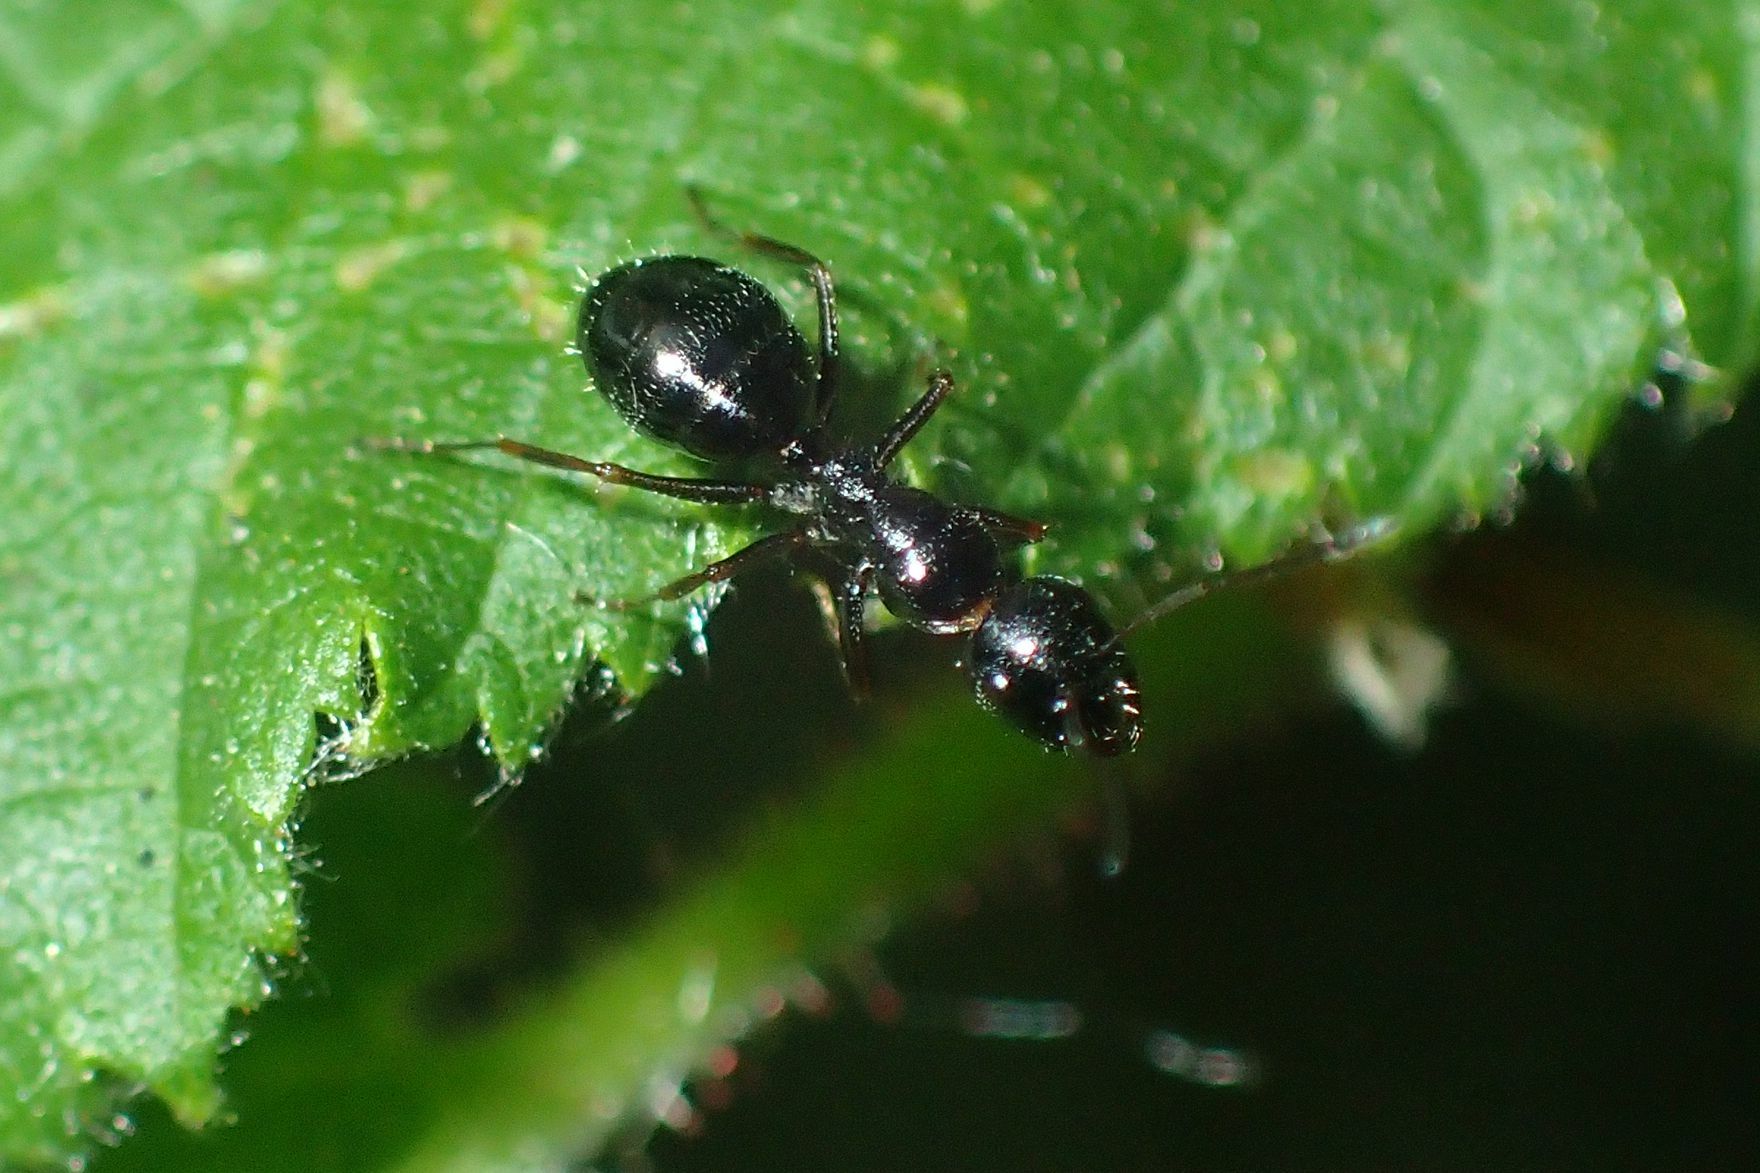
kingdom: Animalia
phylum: Arthropoda
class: Insecta
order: Hymenoptera
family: Formicidae
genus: Camponotus
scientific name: Camponotus piceus
